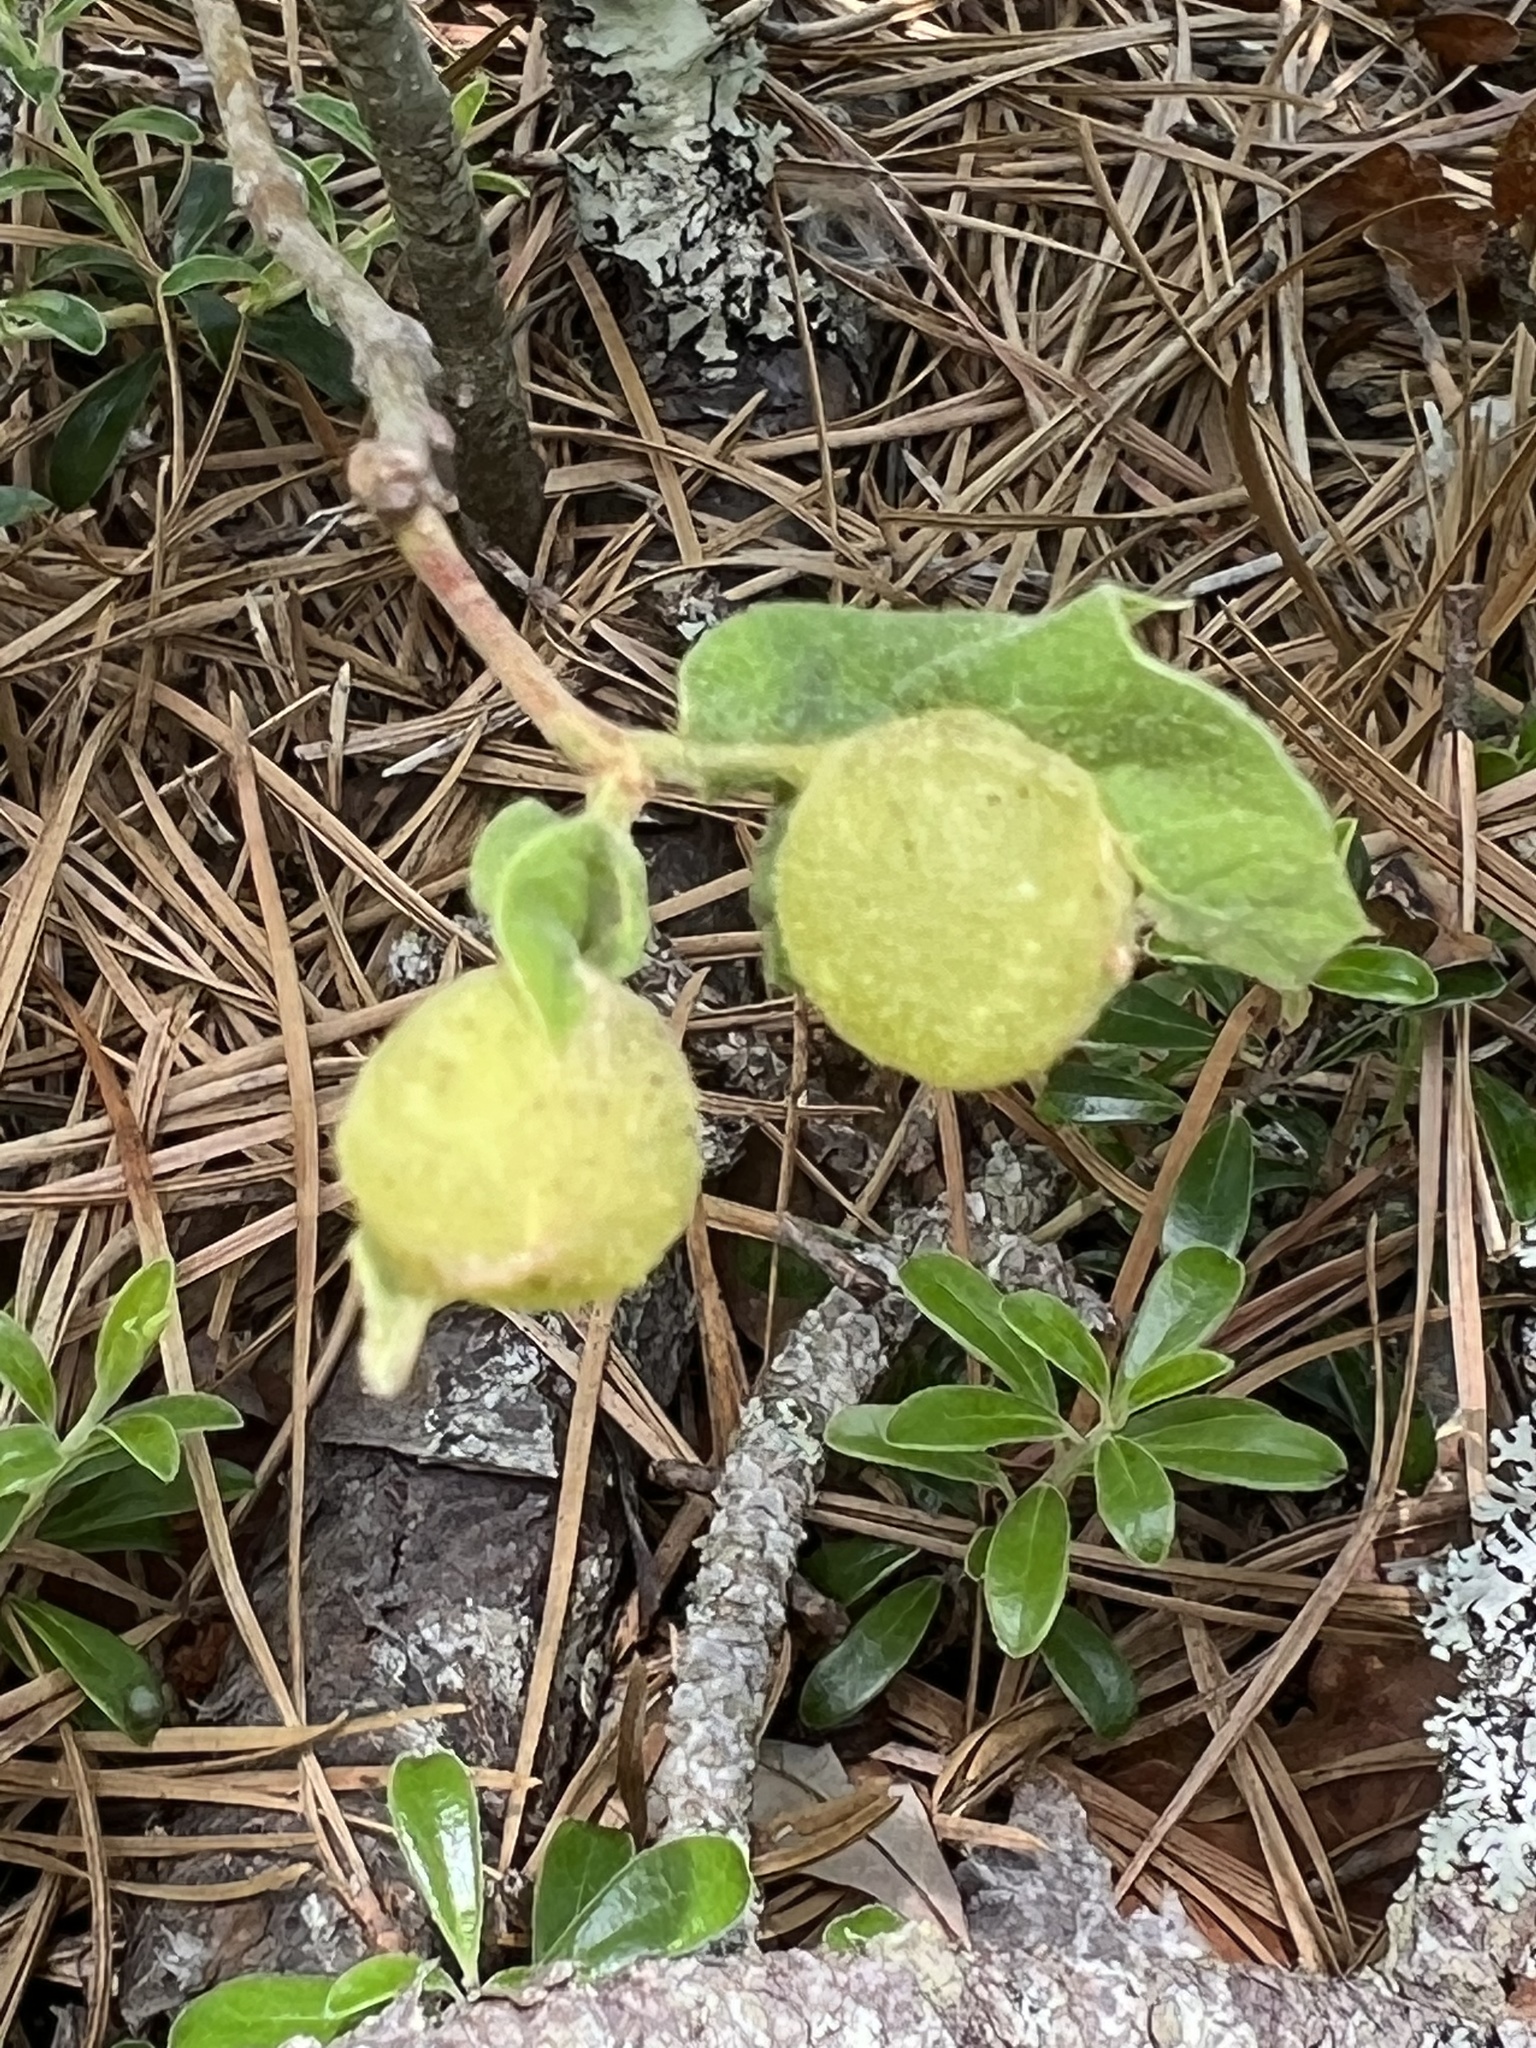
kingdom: Animalia
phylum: Arthropoda
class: Insecta
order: Hymenoptera
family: Cynipidae
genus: Dryocosmus
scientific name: Dryocosmus quercuspalustris
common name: Succulent oak gall wasp
